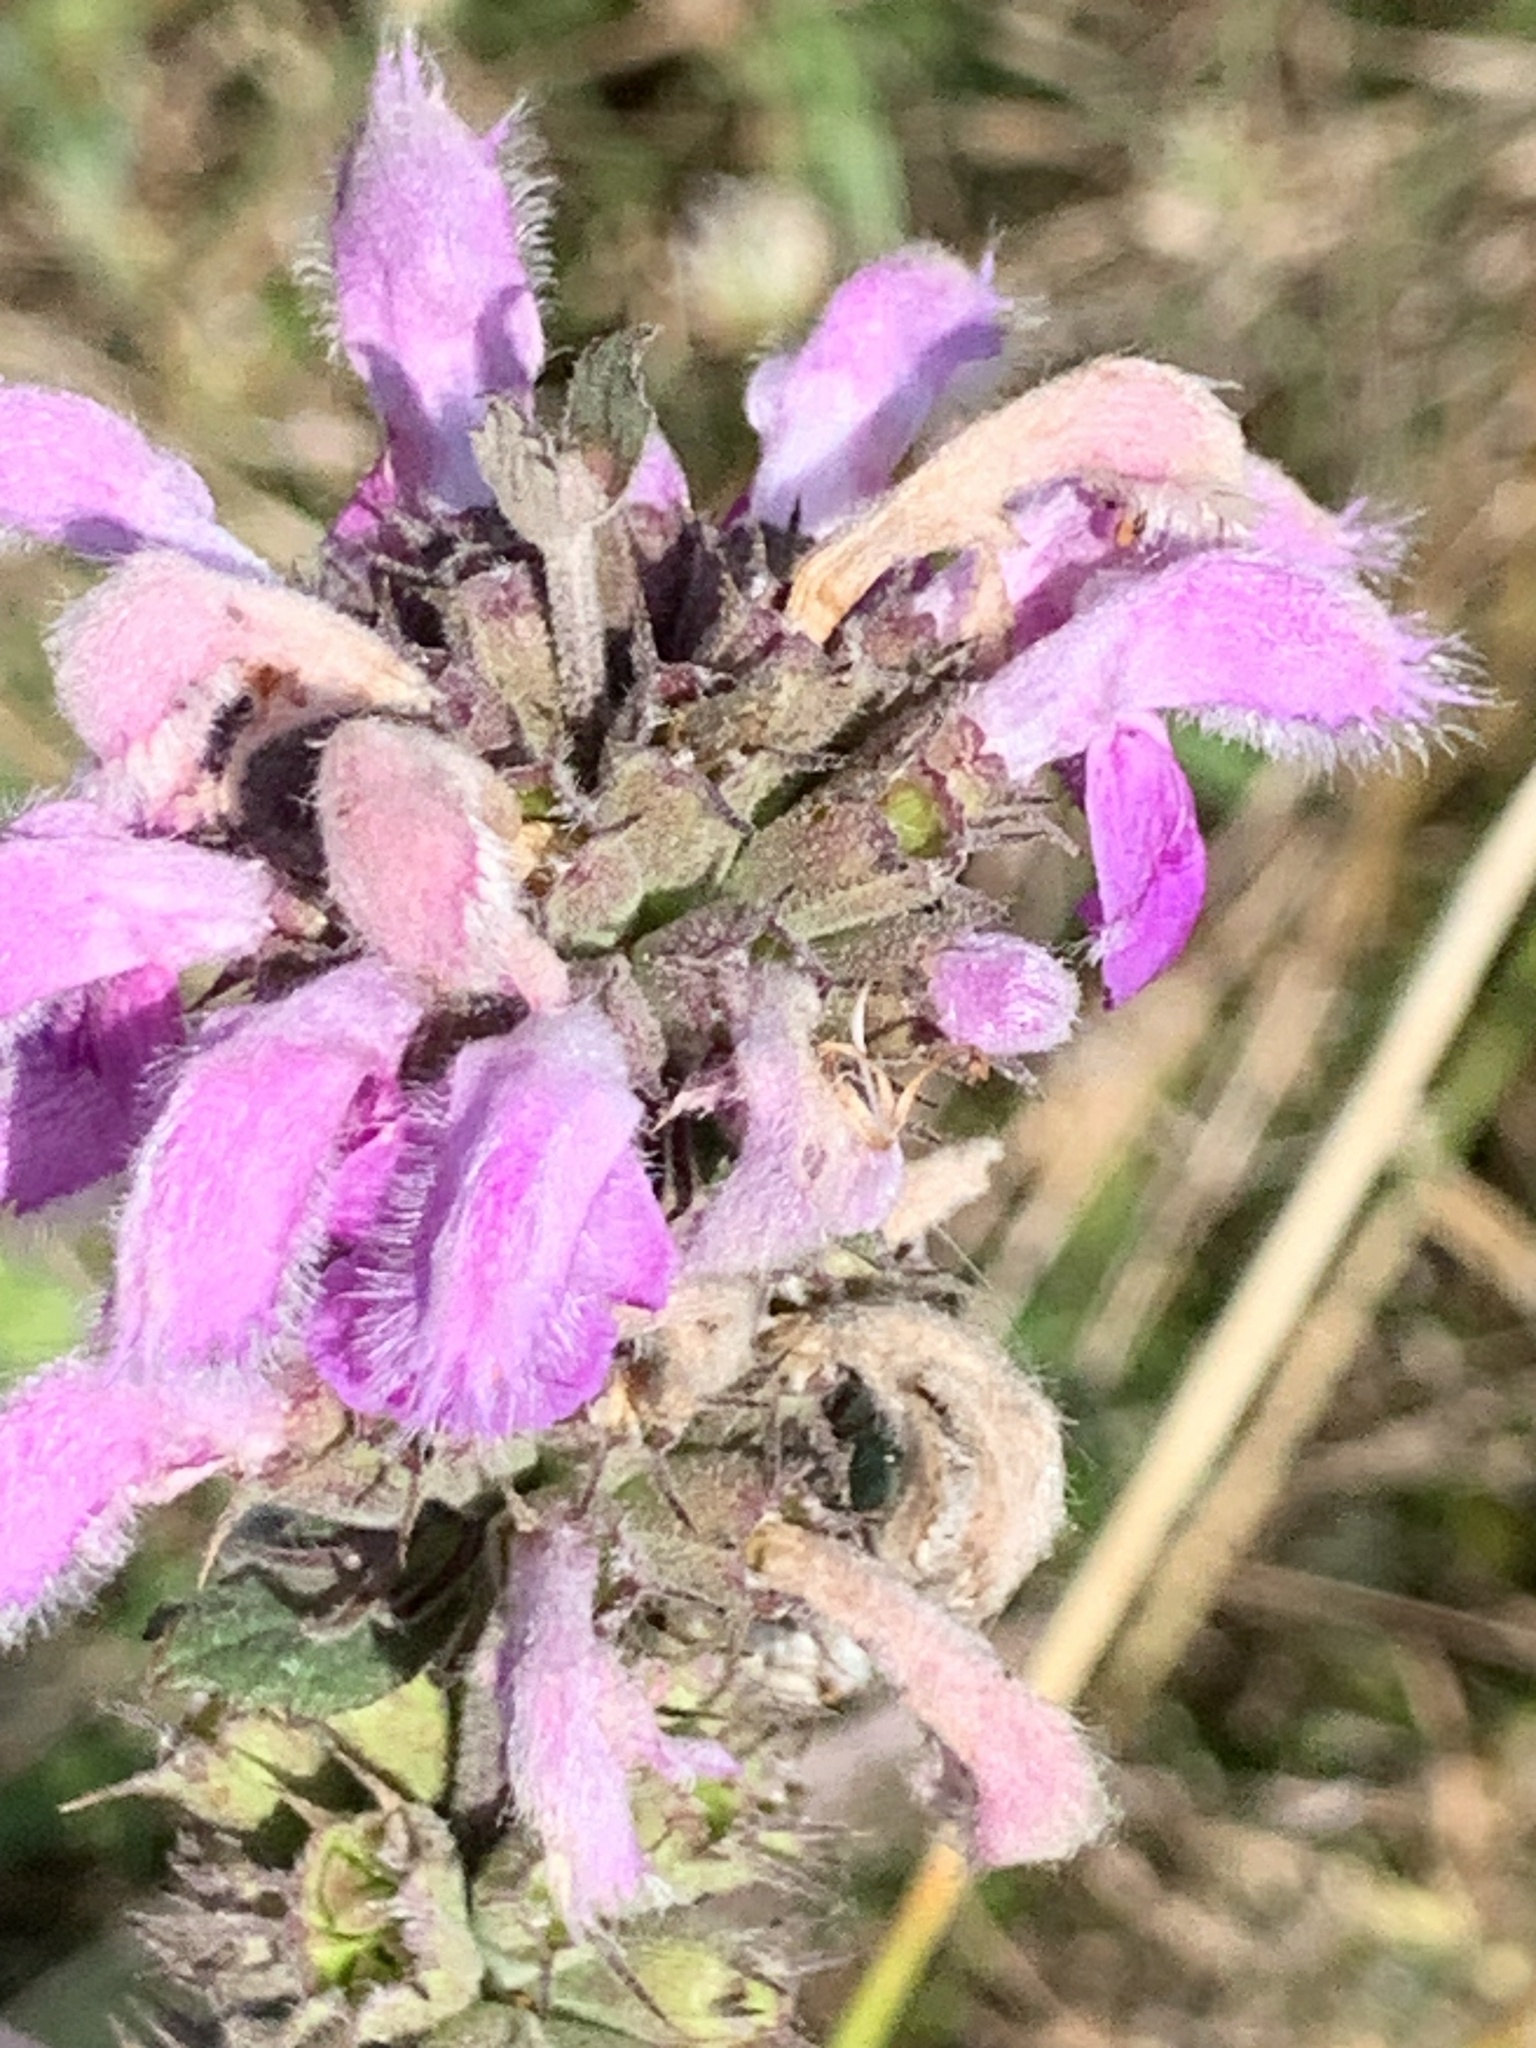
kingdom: Plantae
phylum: Tracheophyta
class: Magnoliopsida
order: Lamiales
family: Lamiaceae
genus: Phlomis
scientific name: Phlomis herba-venti
